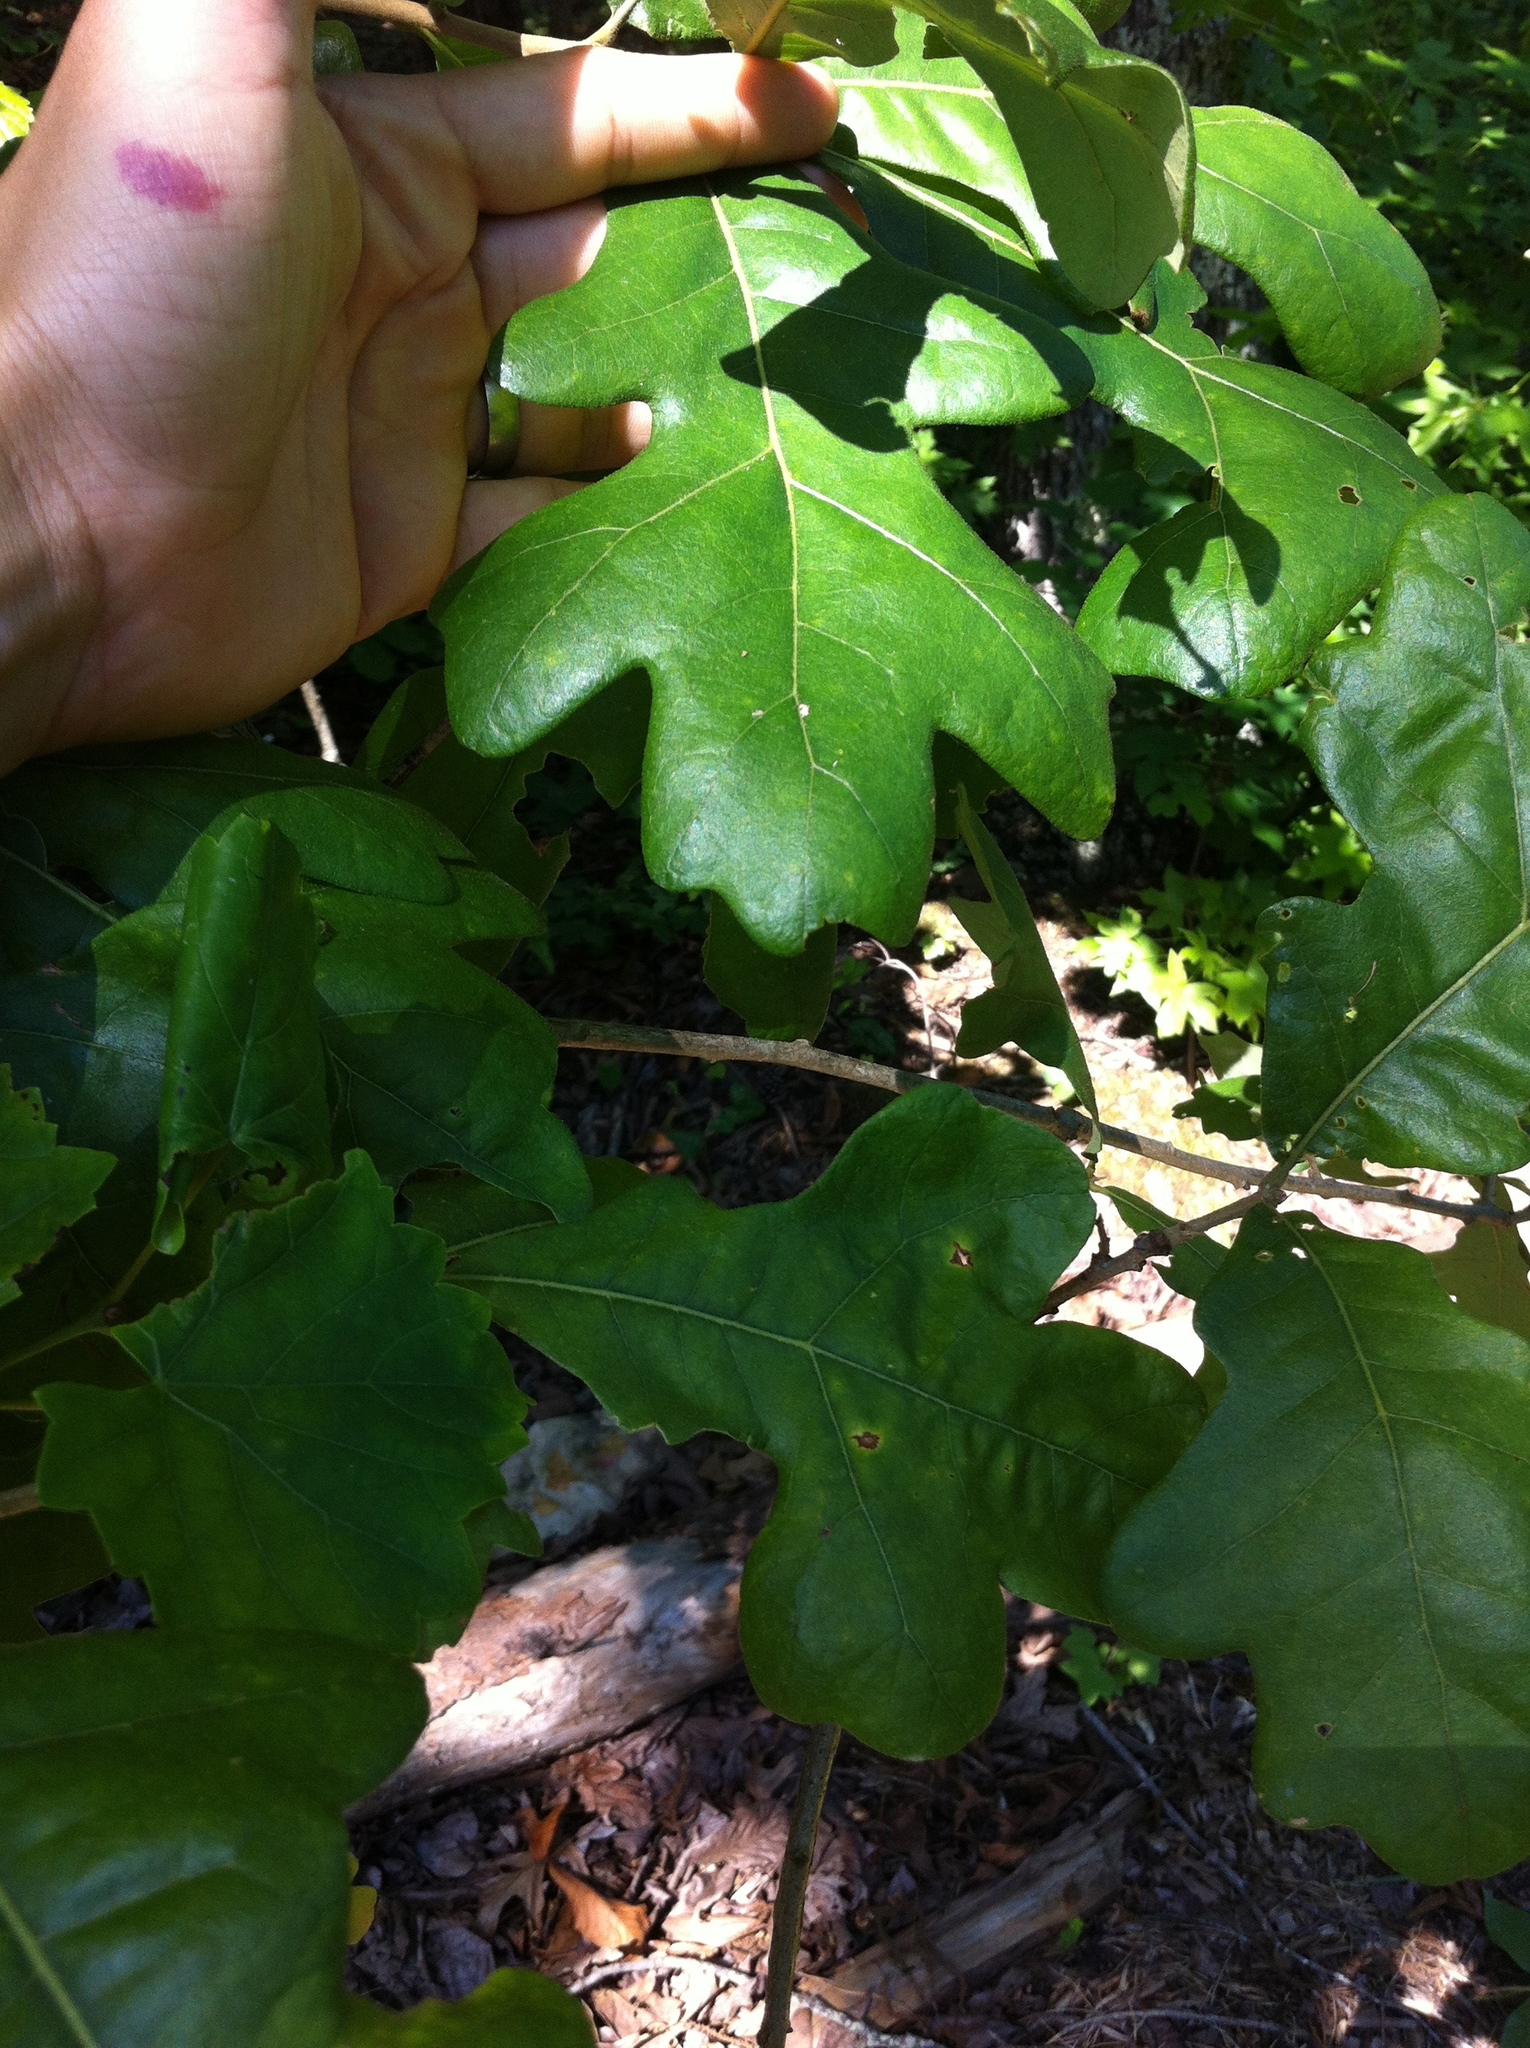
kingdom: Plantae
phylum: Tracheophyta
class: Magnoliopsida
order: Fagales
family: Fagaceae
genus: Quercus
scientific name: Quercus stellata
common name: Post oak
